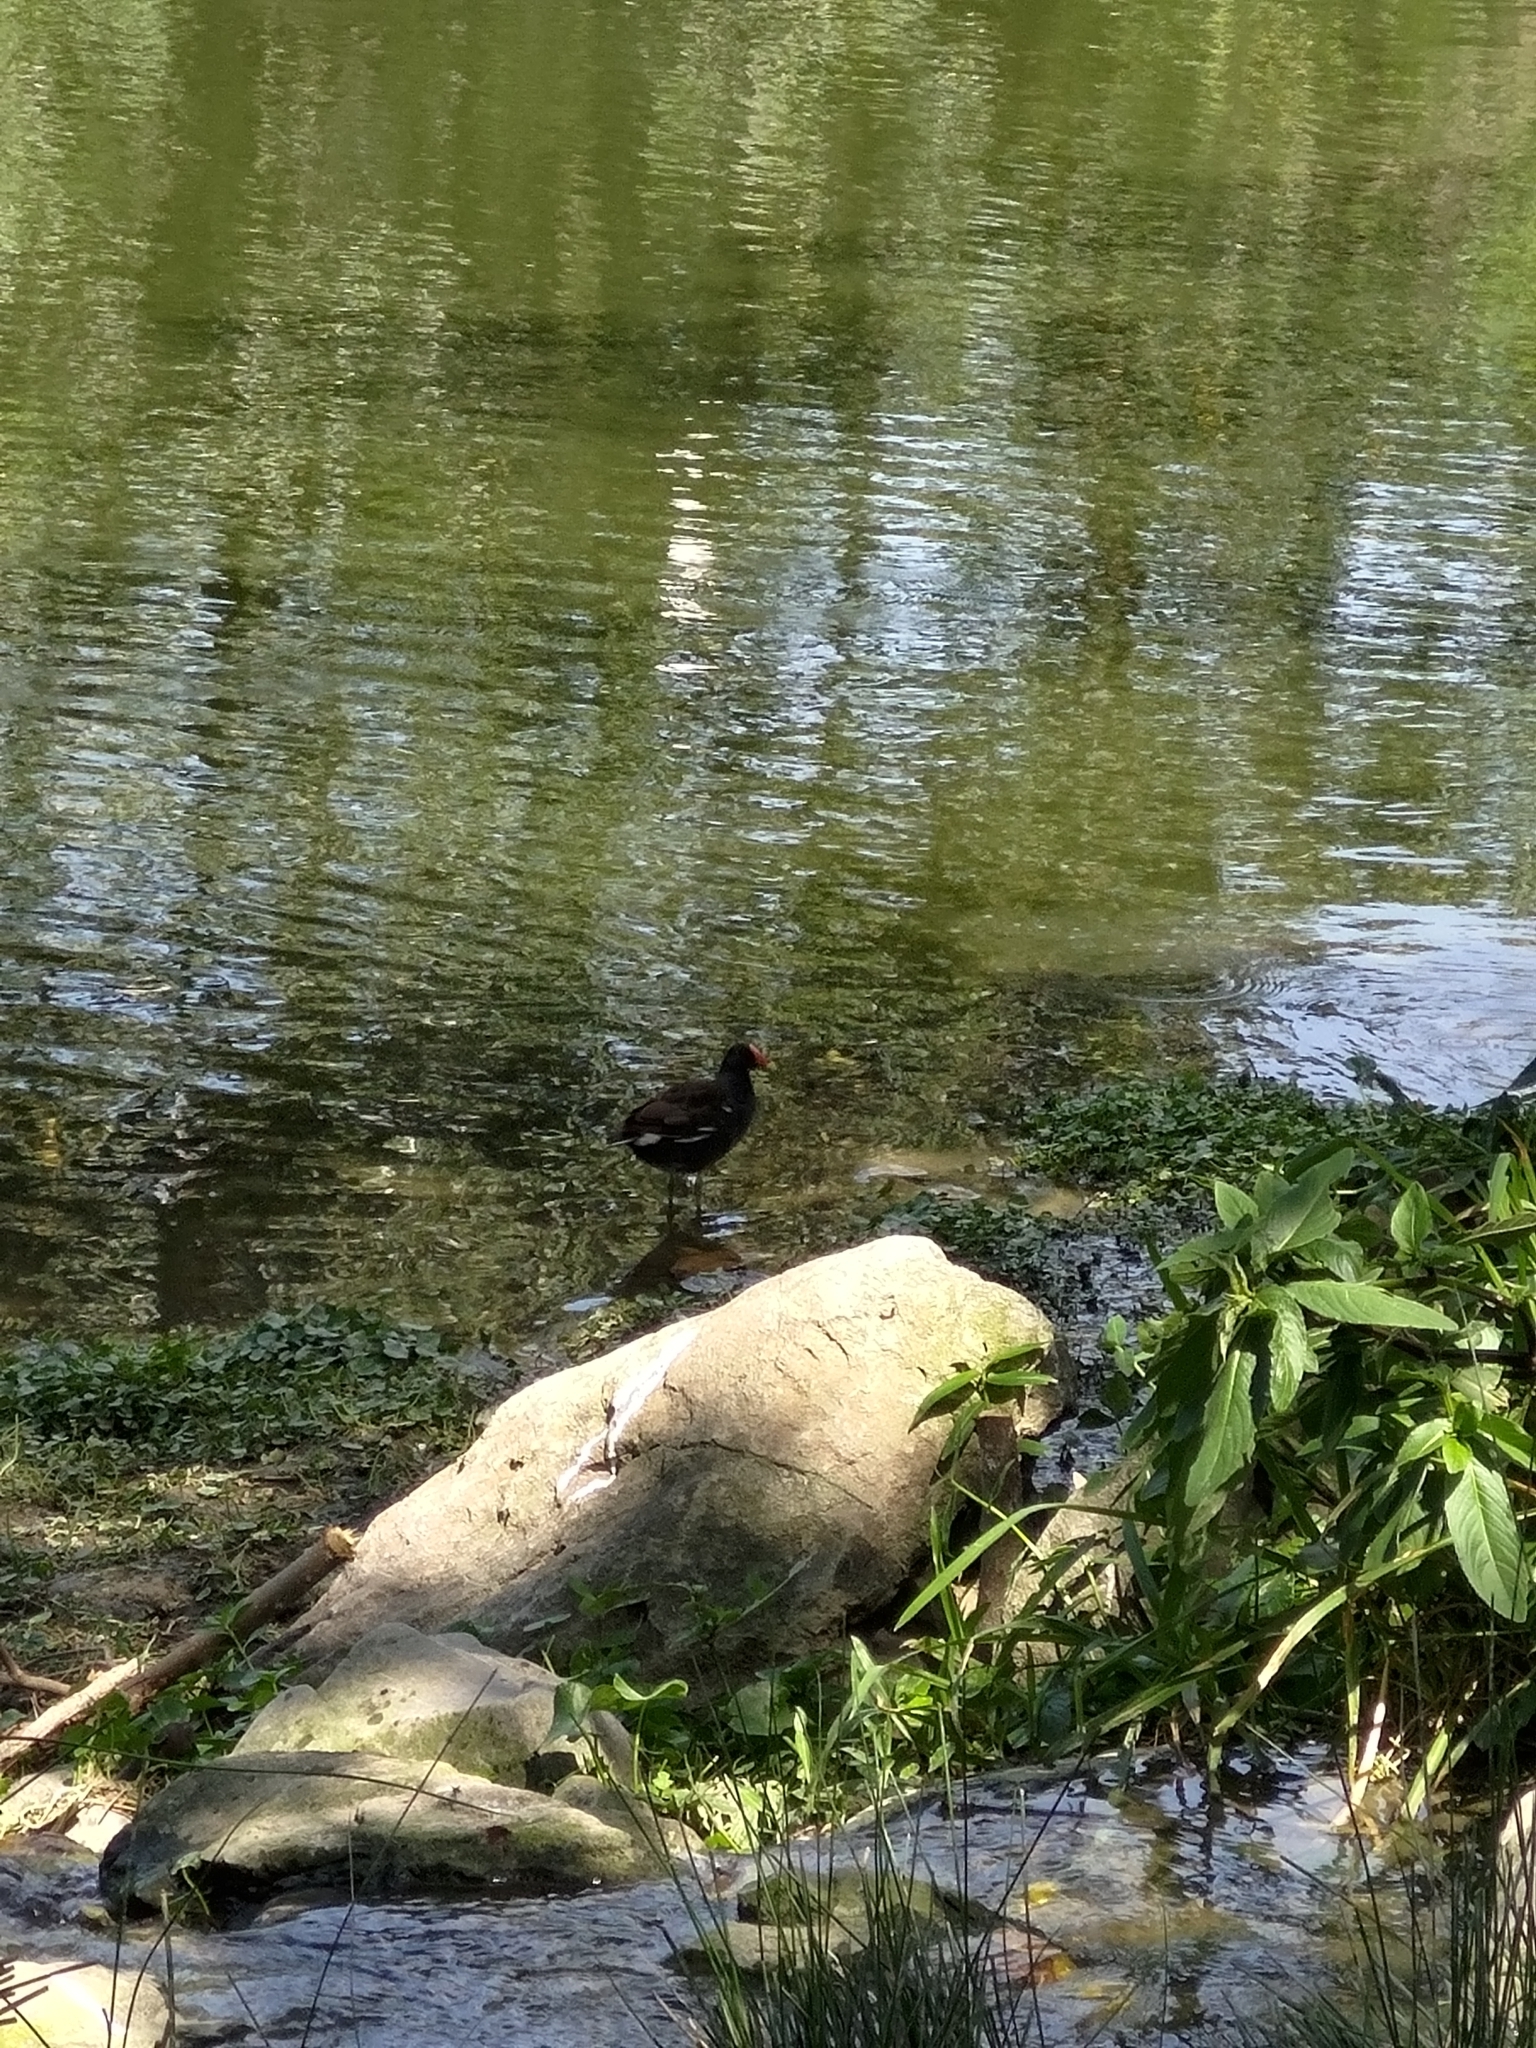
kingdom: Animalia
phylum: Chordata
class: Aves
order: Gruiformes
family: Rallidae
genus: Gallinula
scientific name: Gallinula chloropus
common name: Common moorhen
